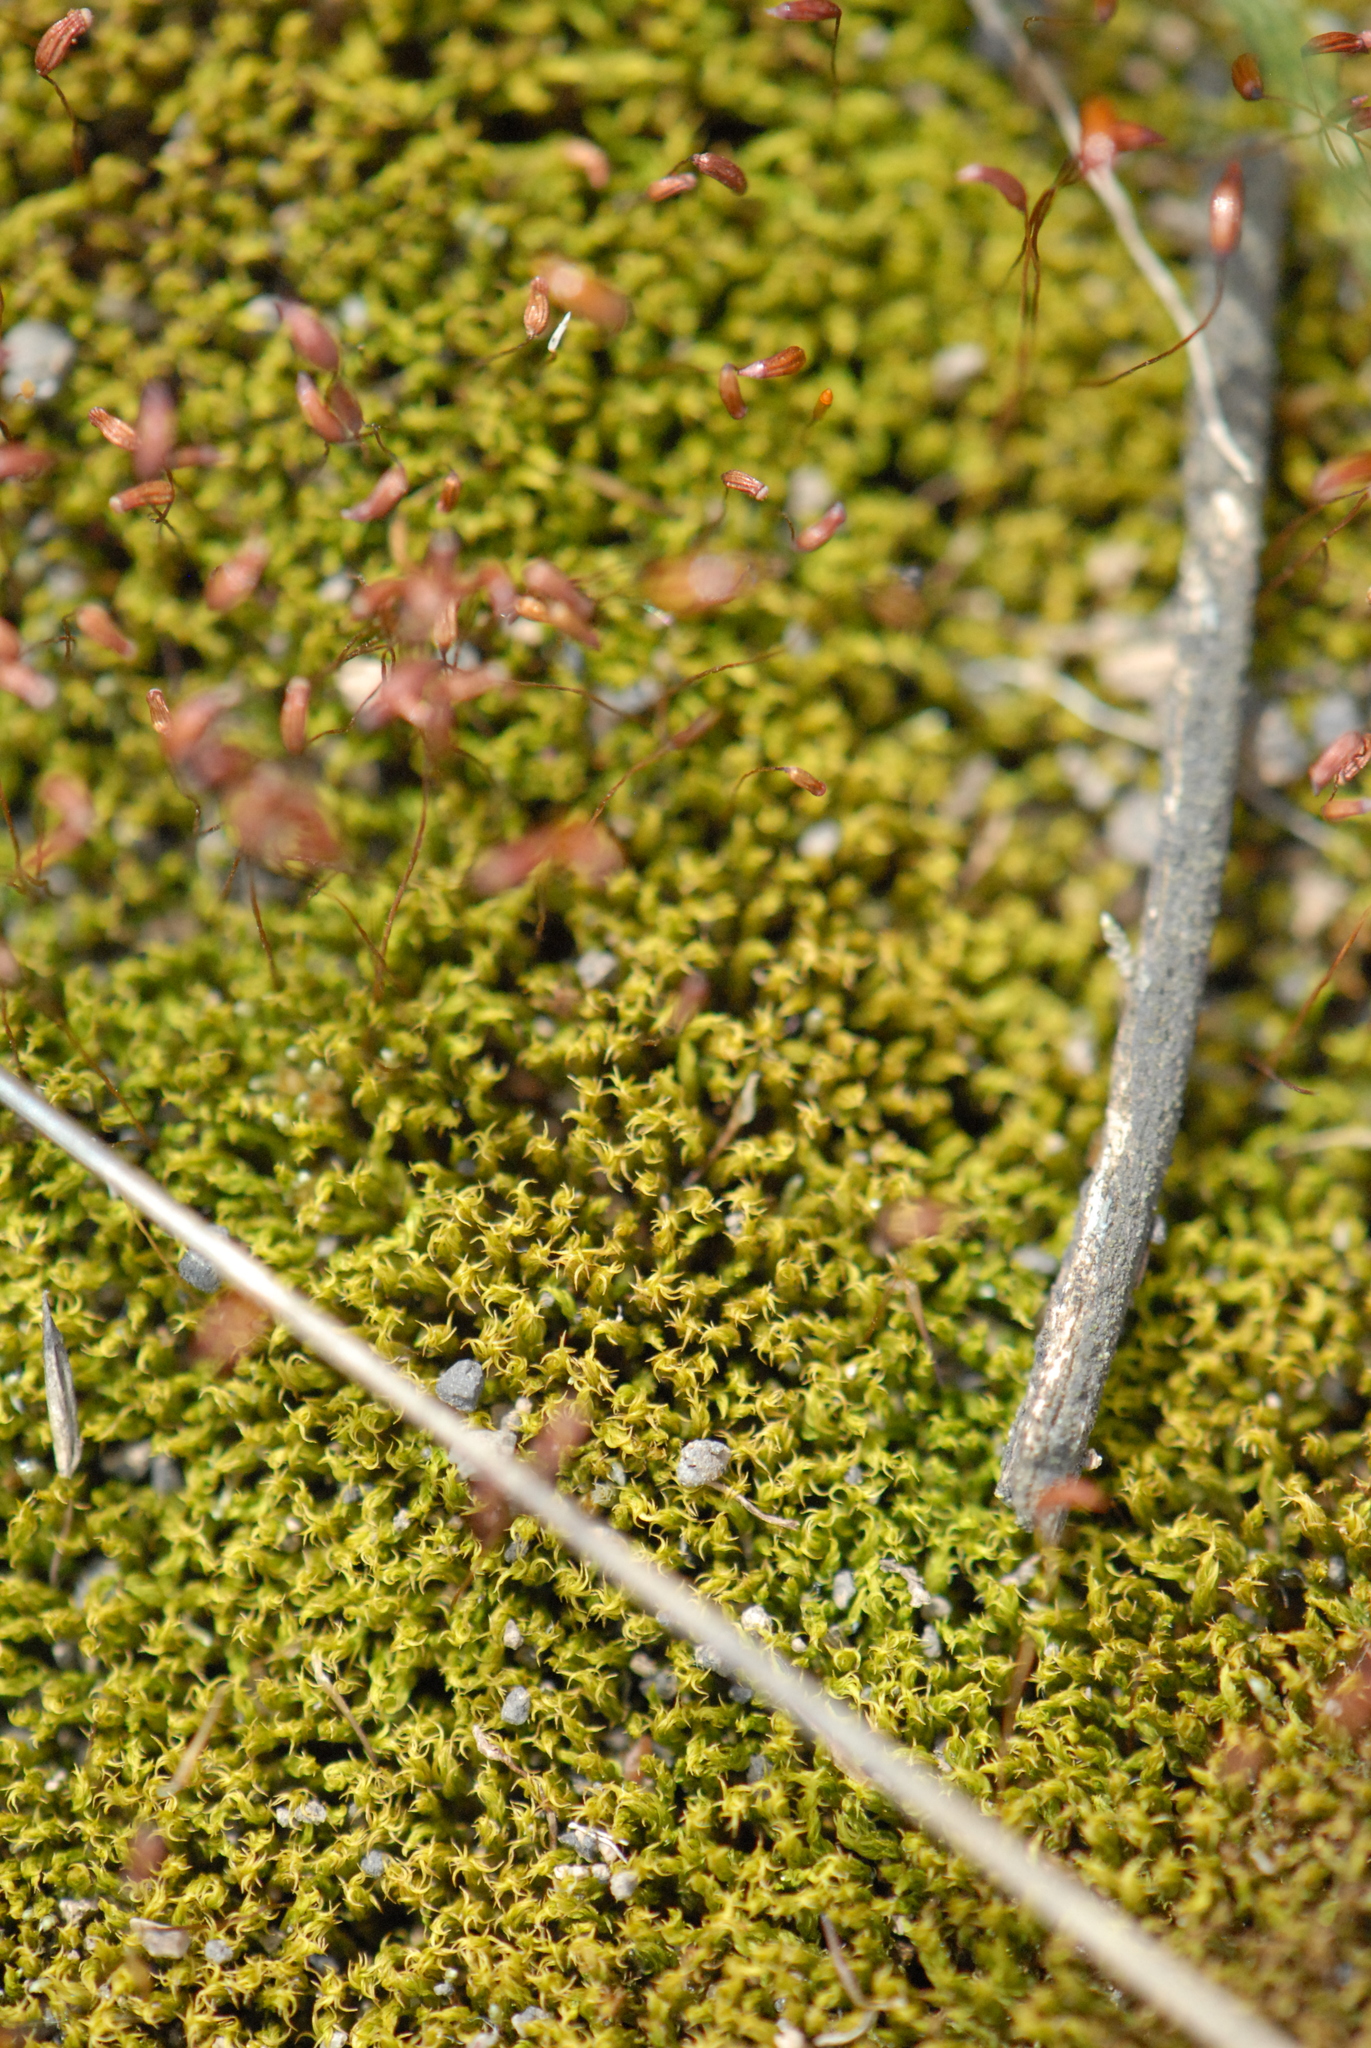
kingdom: Plantae
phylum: Bryophyta
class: Bryopsida
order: Dicranales
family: Ditrichaceae
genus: Ceratodon
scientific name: Ceratodon purpureus
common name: Redshank
